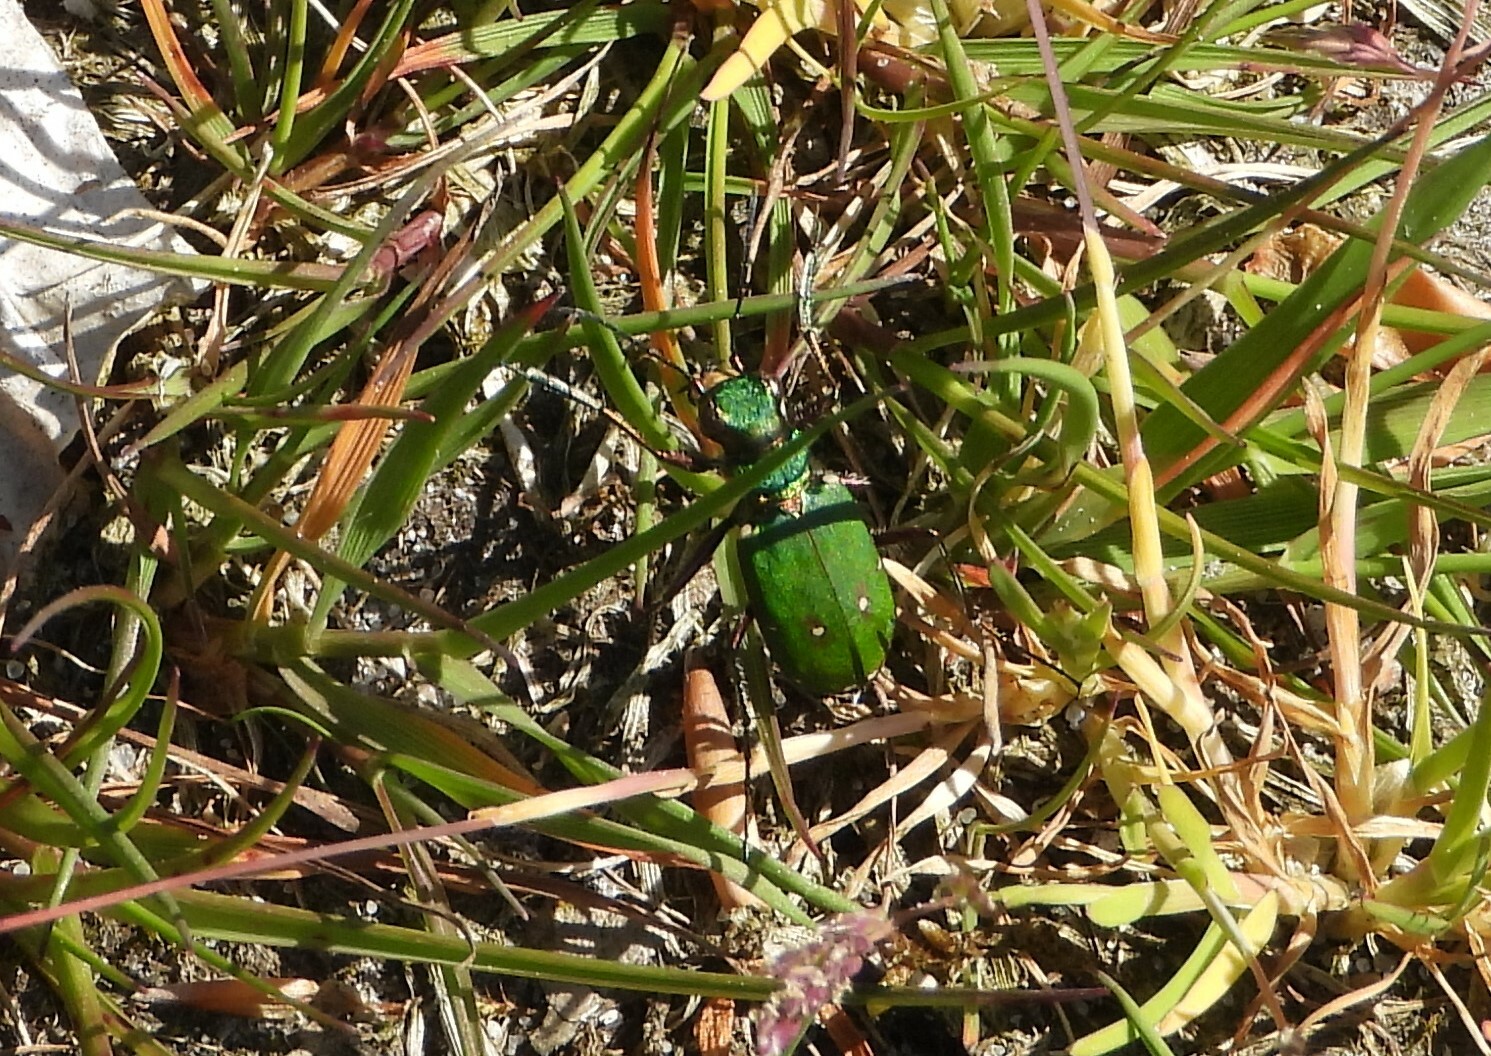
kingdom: Animalia
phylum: Arthropoda
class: Insecta
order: Coleoptera
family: Carabidae
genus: Cicindela
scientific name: Cicindela campestris
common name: Common tiger beetle
